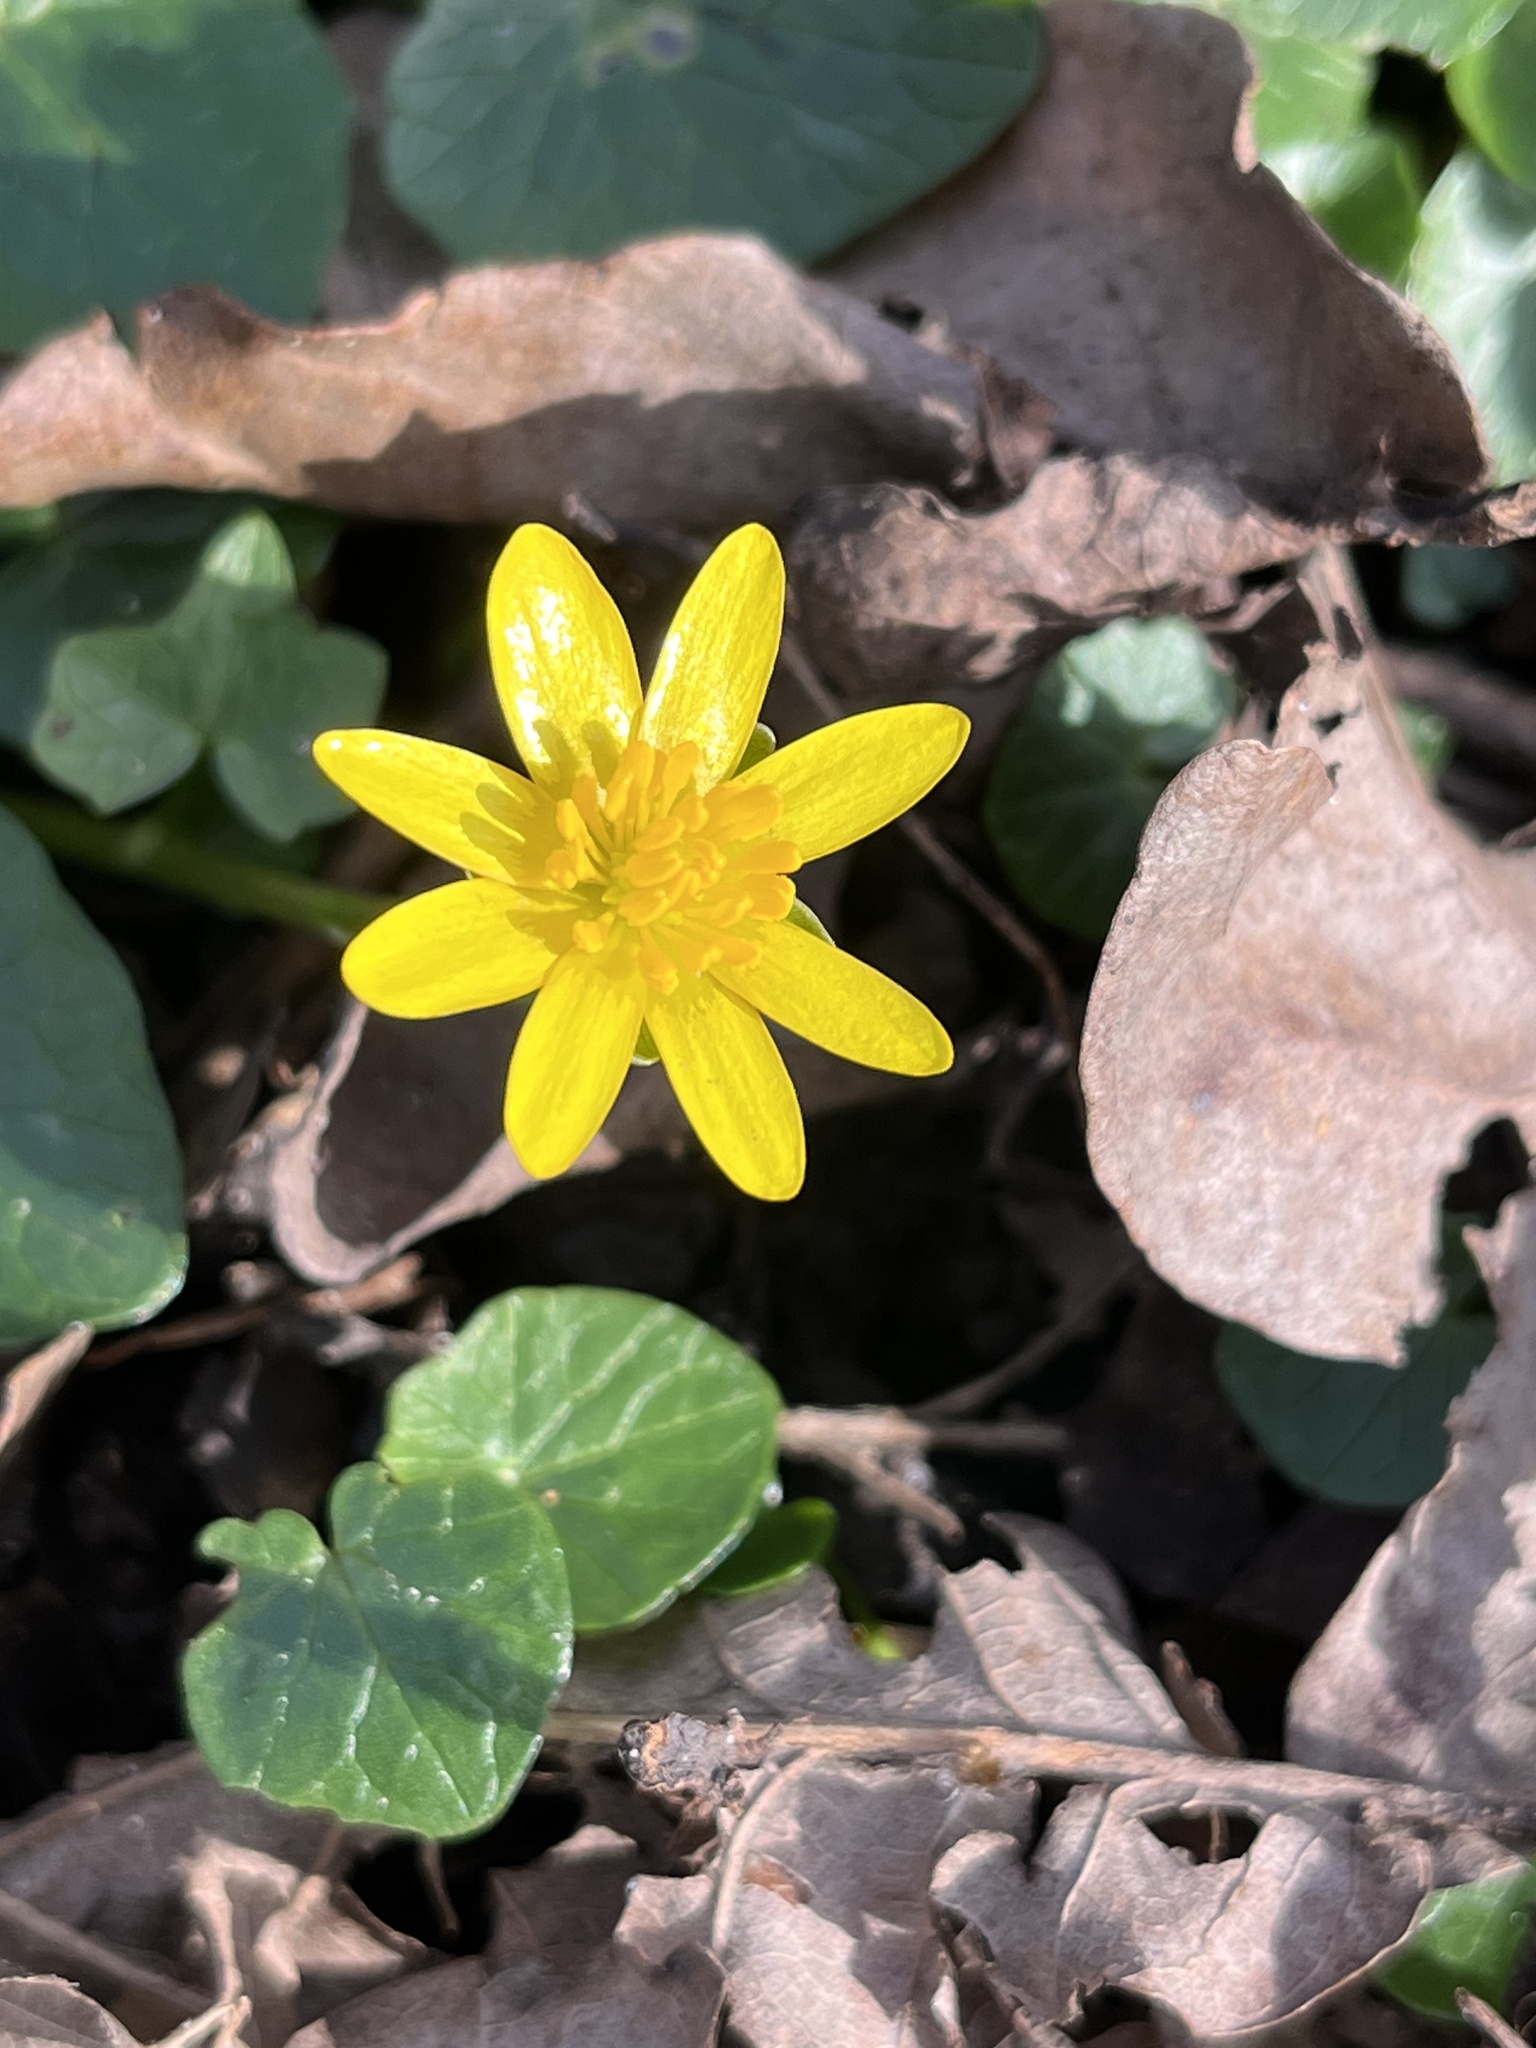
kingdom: Plantae
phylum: Tracheophyta
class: Magnoliopsida
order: Ranunculales
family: Ranunculaceae
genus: Ficaria
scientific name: Ficaria verna
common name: Lesser celandine
